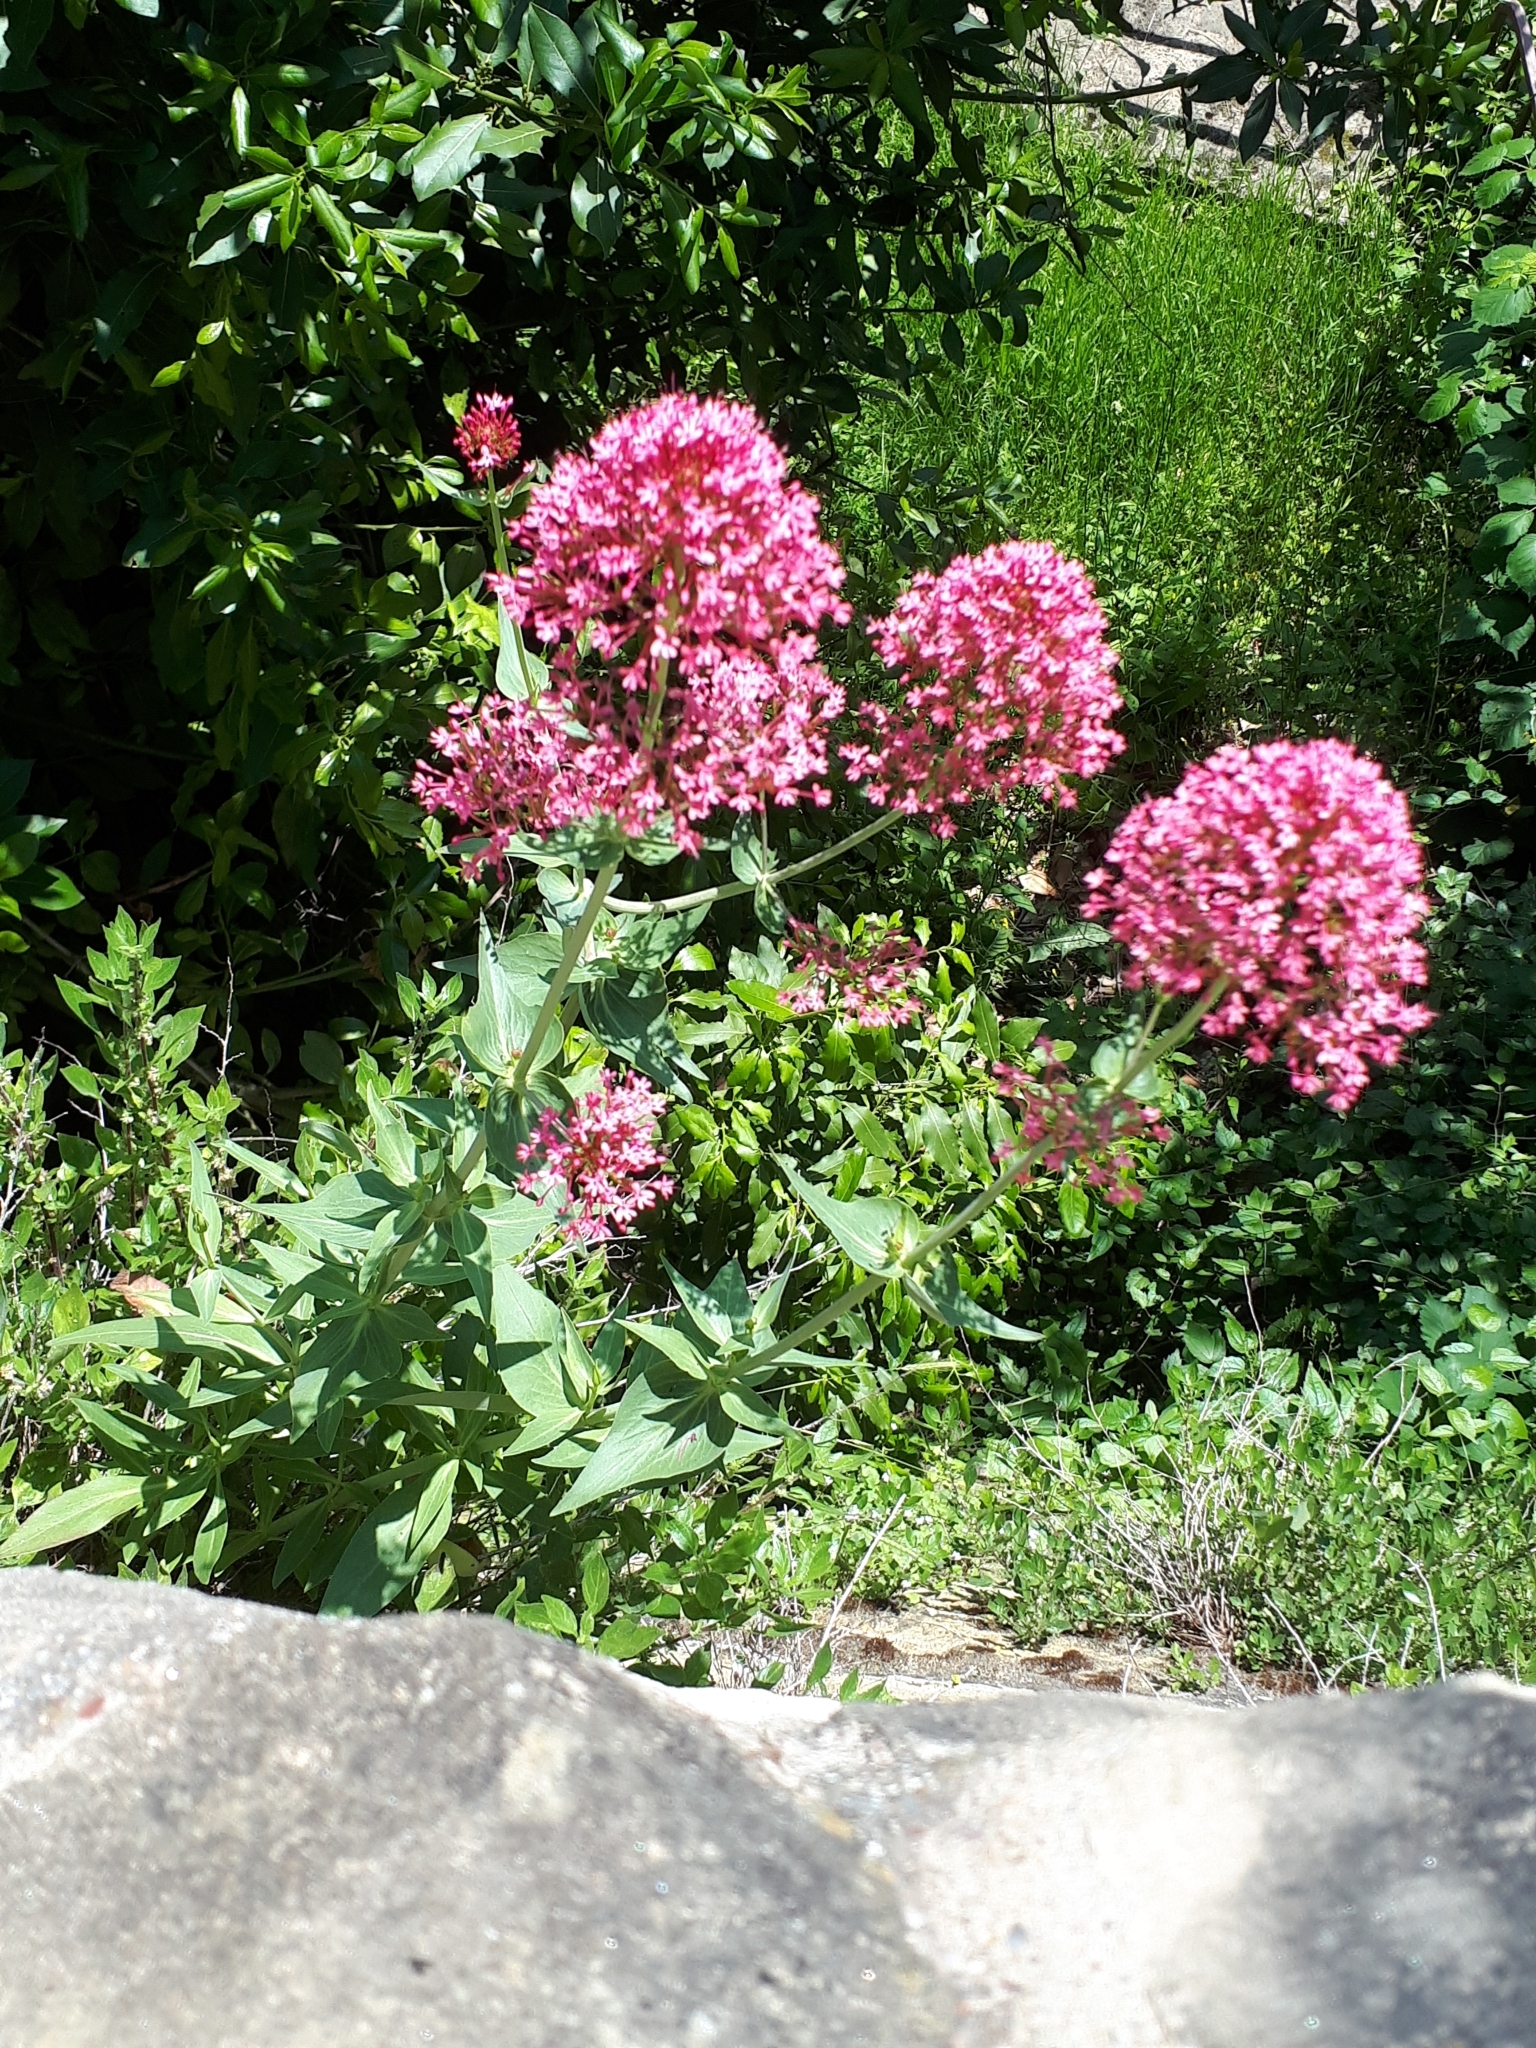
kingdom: Plantae
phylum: Tracheophyta
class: Magnoliopsida
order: Dipsacales
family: Caprifoliaceae
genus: Centranthus
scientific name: Centranthus ruber
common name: Red valerian
